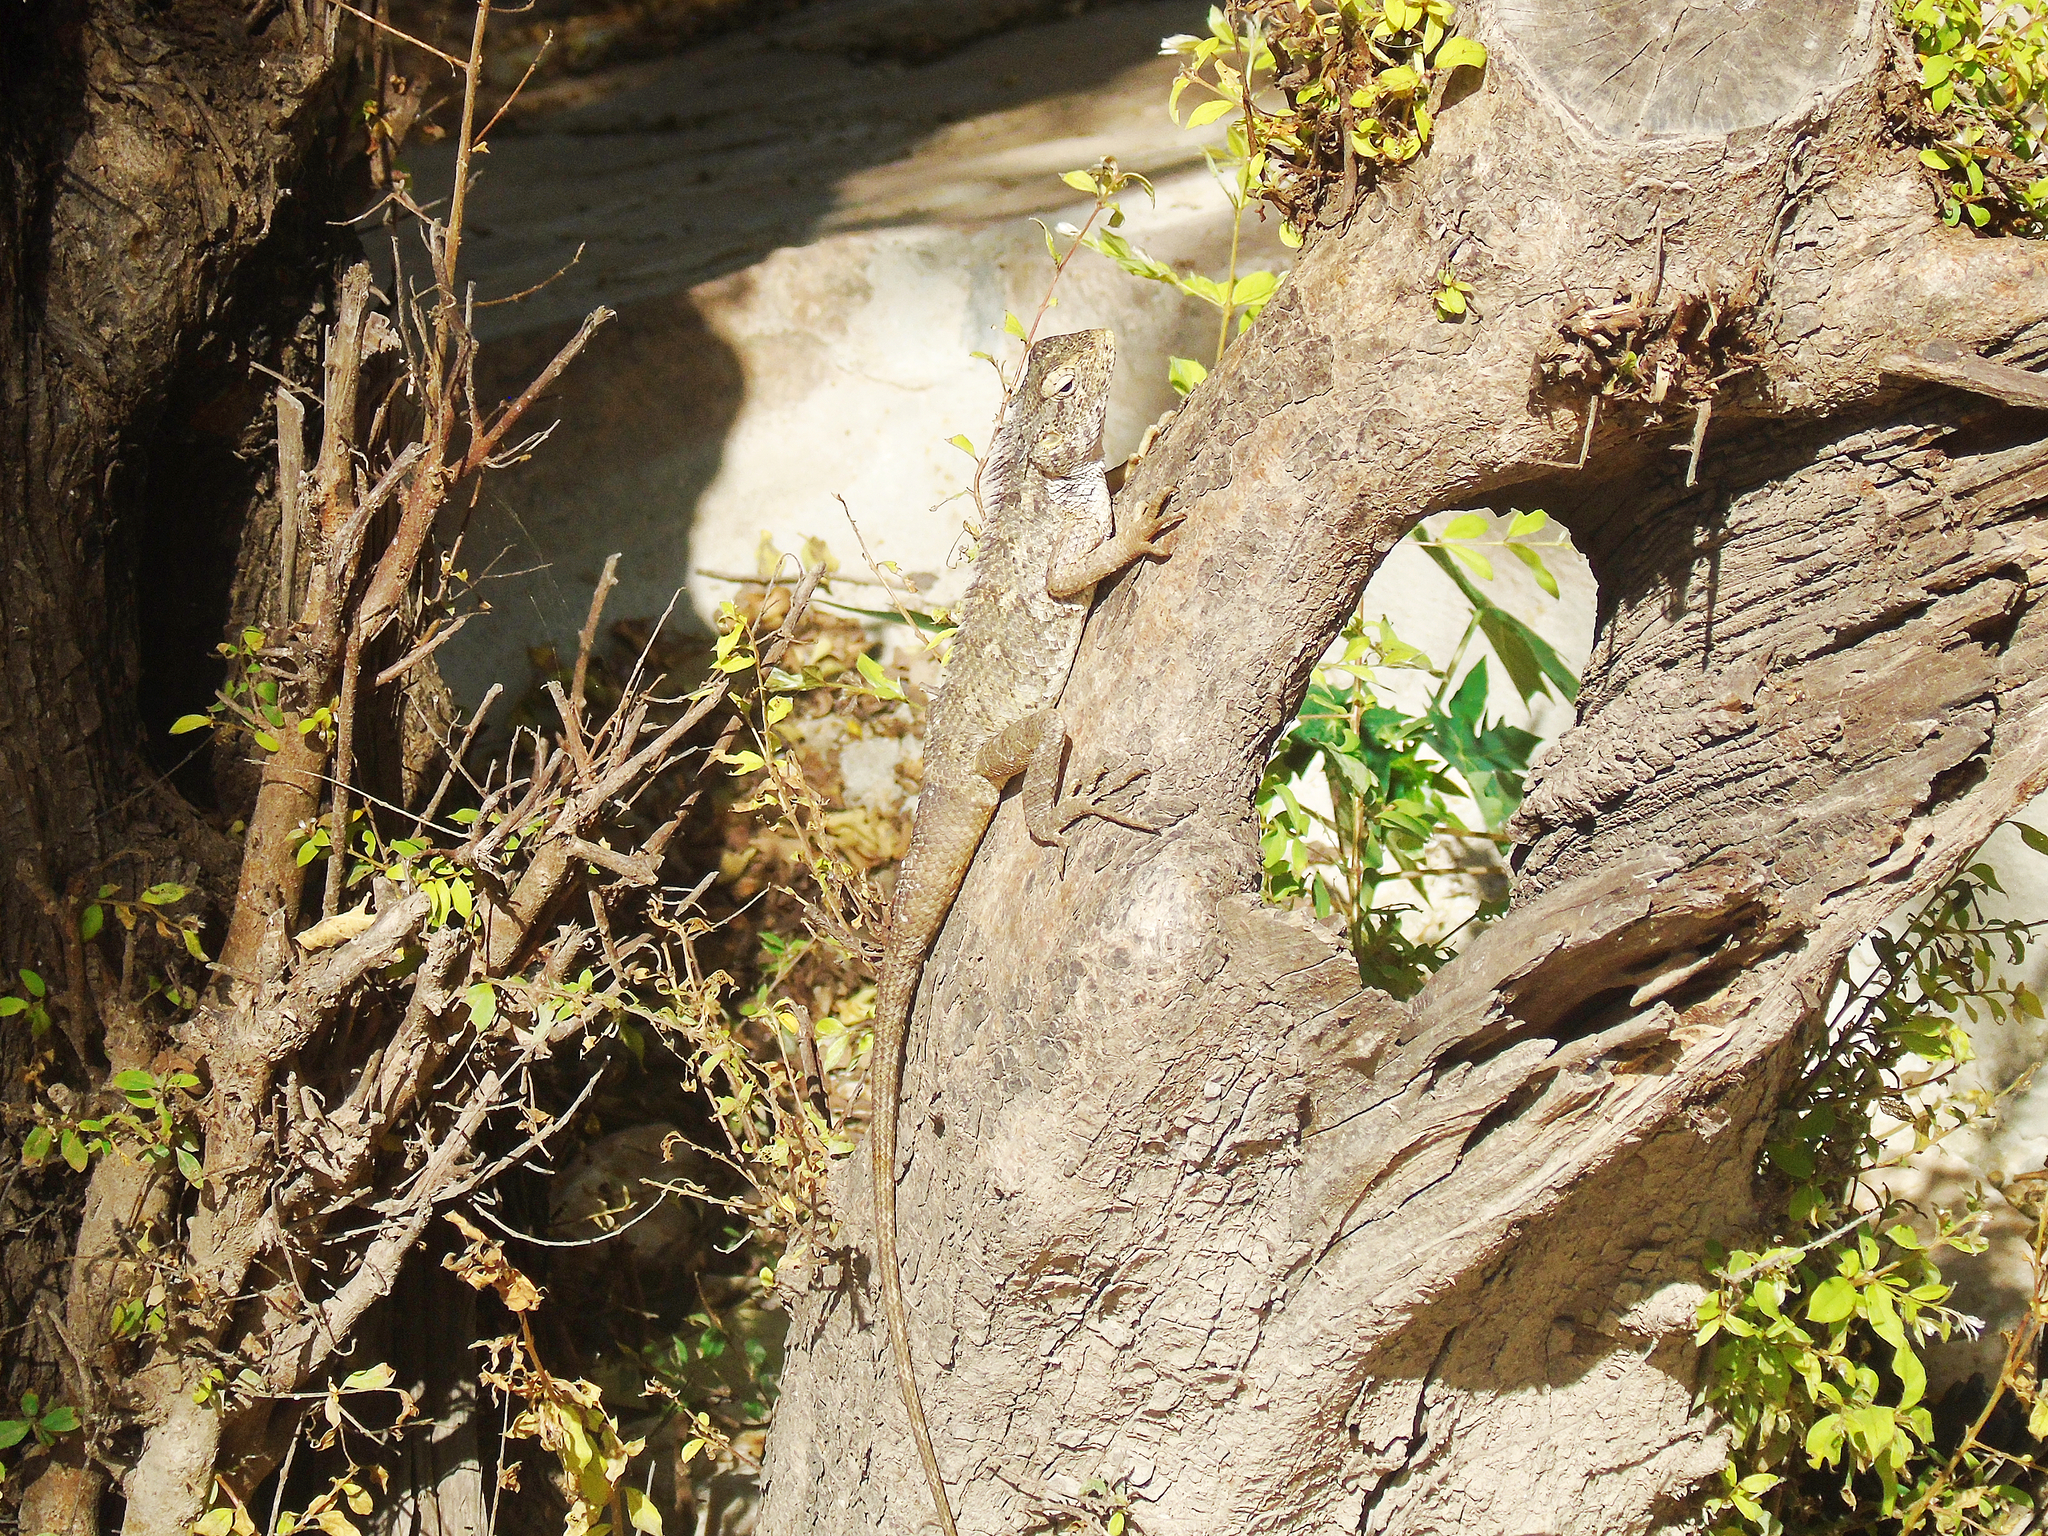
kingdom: Animalia
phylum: Chordata
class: Squamata
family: Agamidae
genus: Calotes
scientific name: Calotes versicolor
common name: Oriental garden lizard
